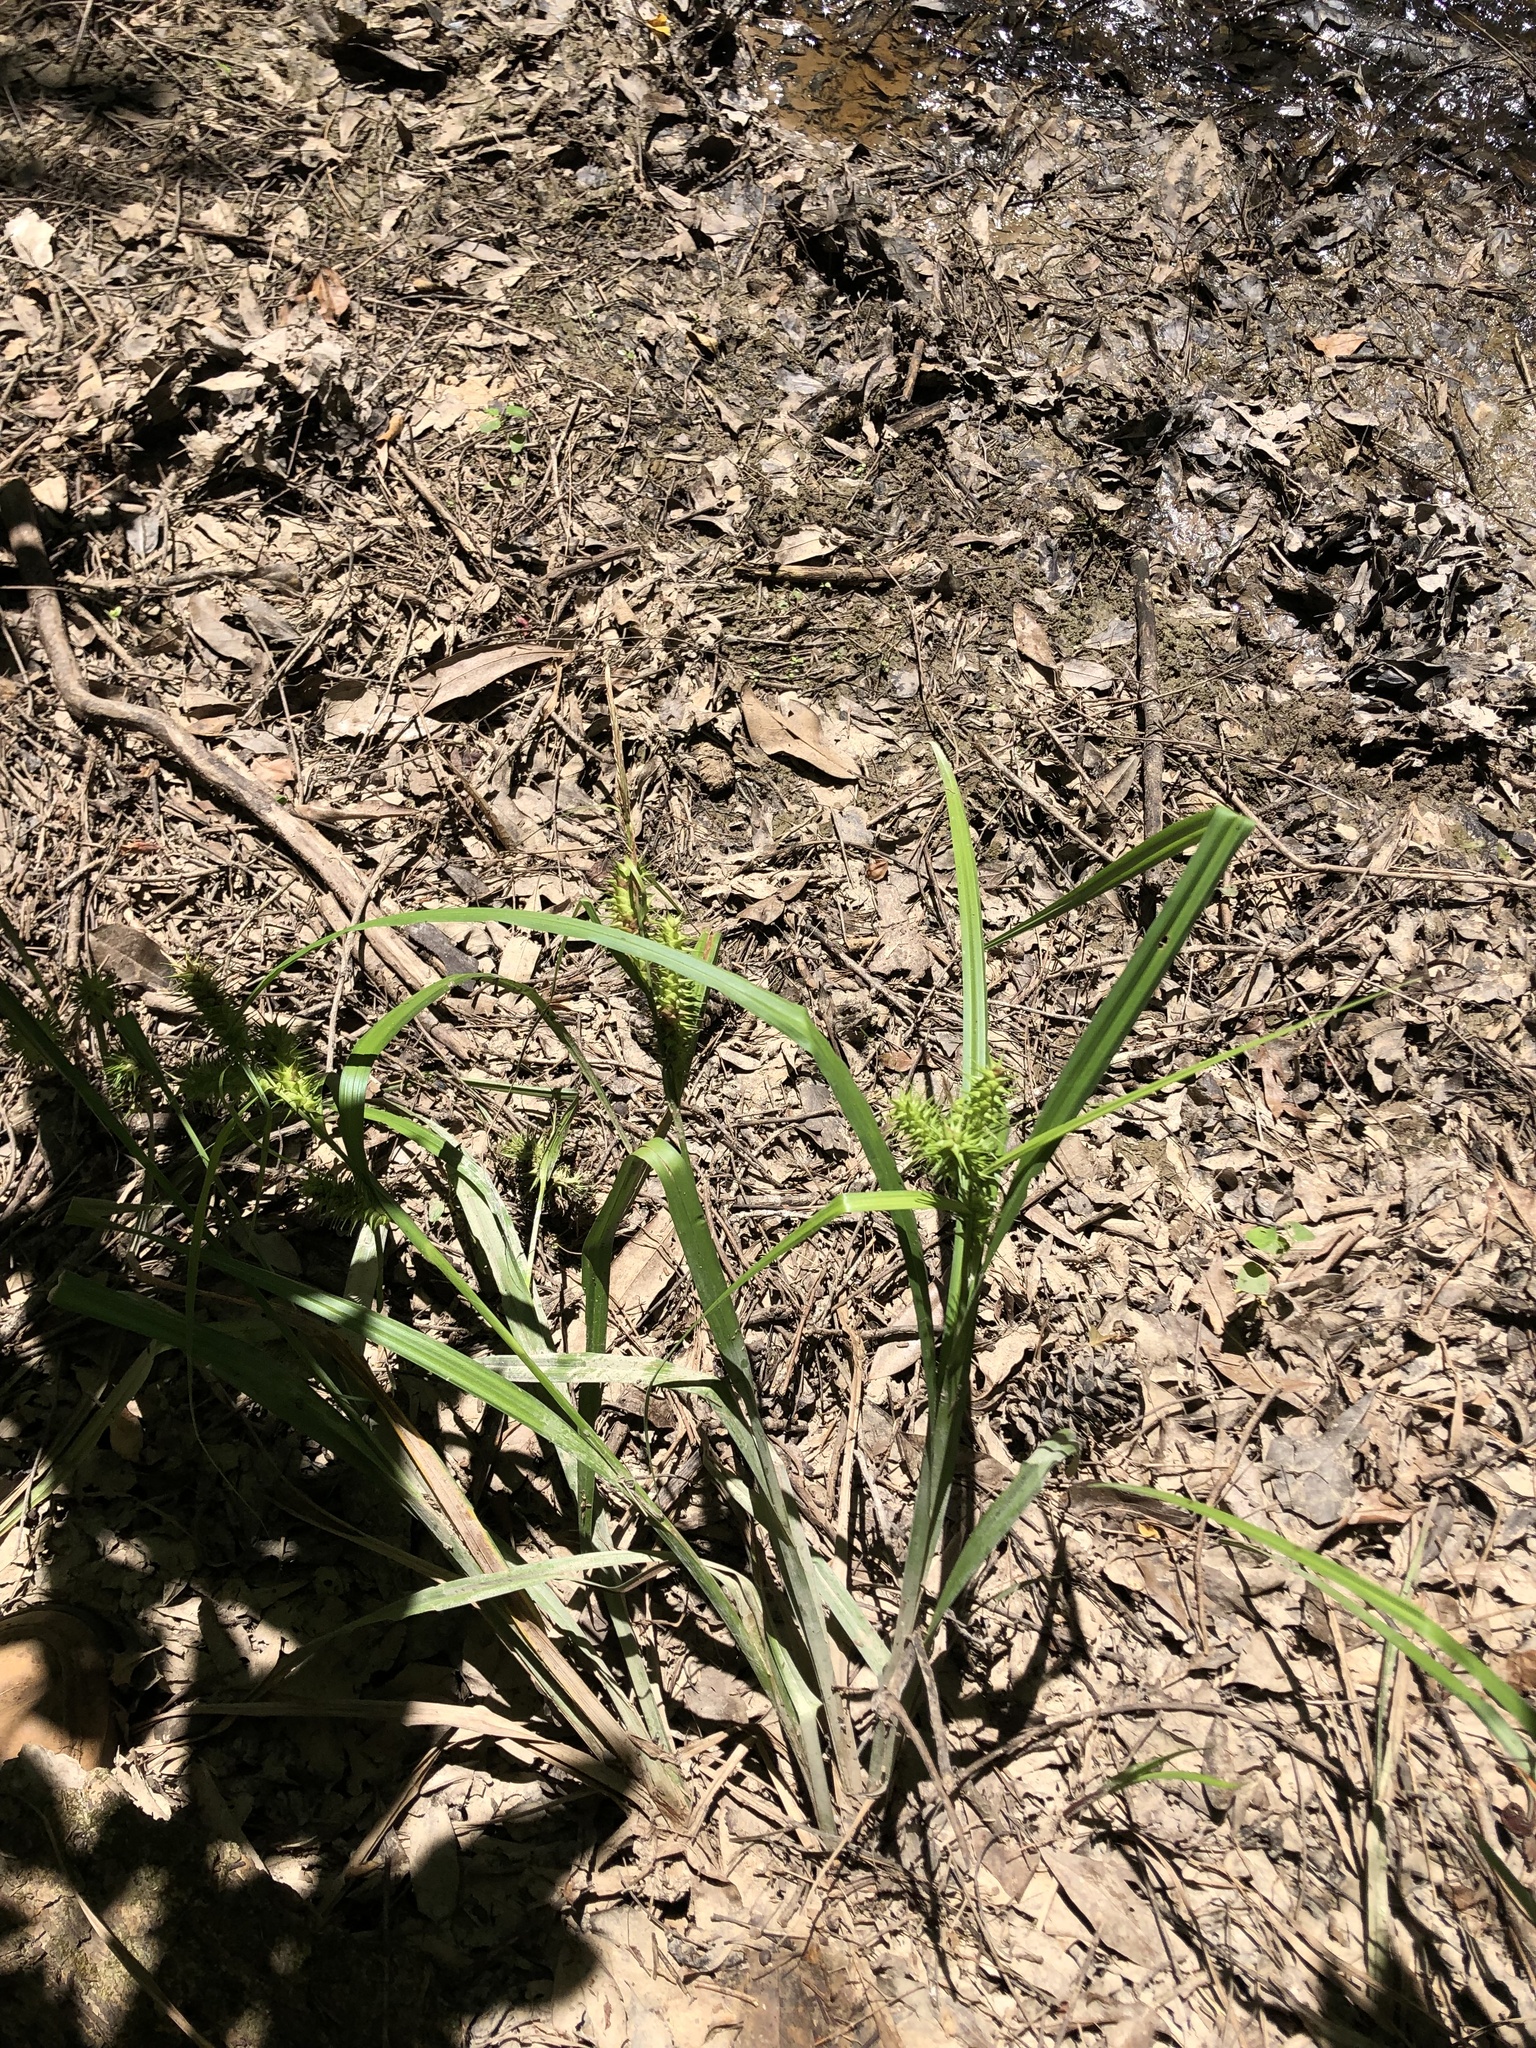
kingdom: Plantae
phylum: Tracheophyta
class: Liliopsida
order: Poales
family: Cyperaceae
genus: Carex
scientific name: Carex gigantea
